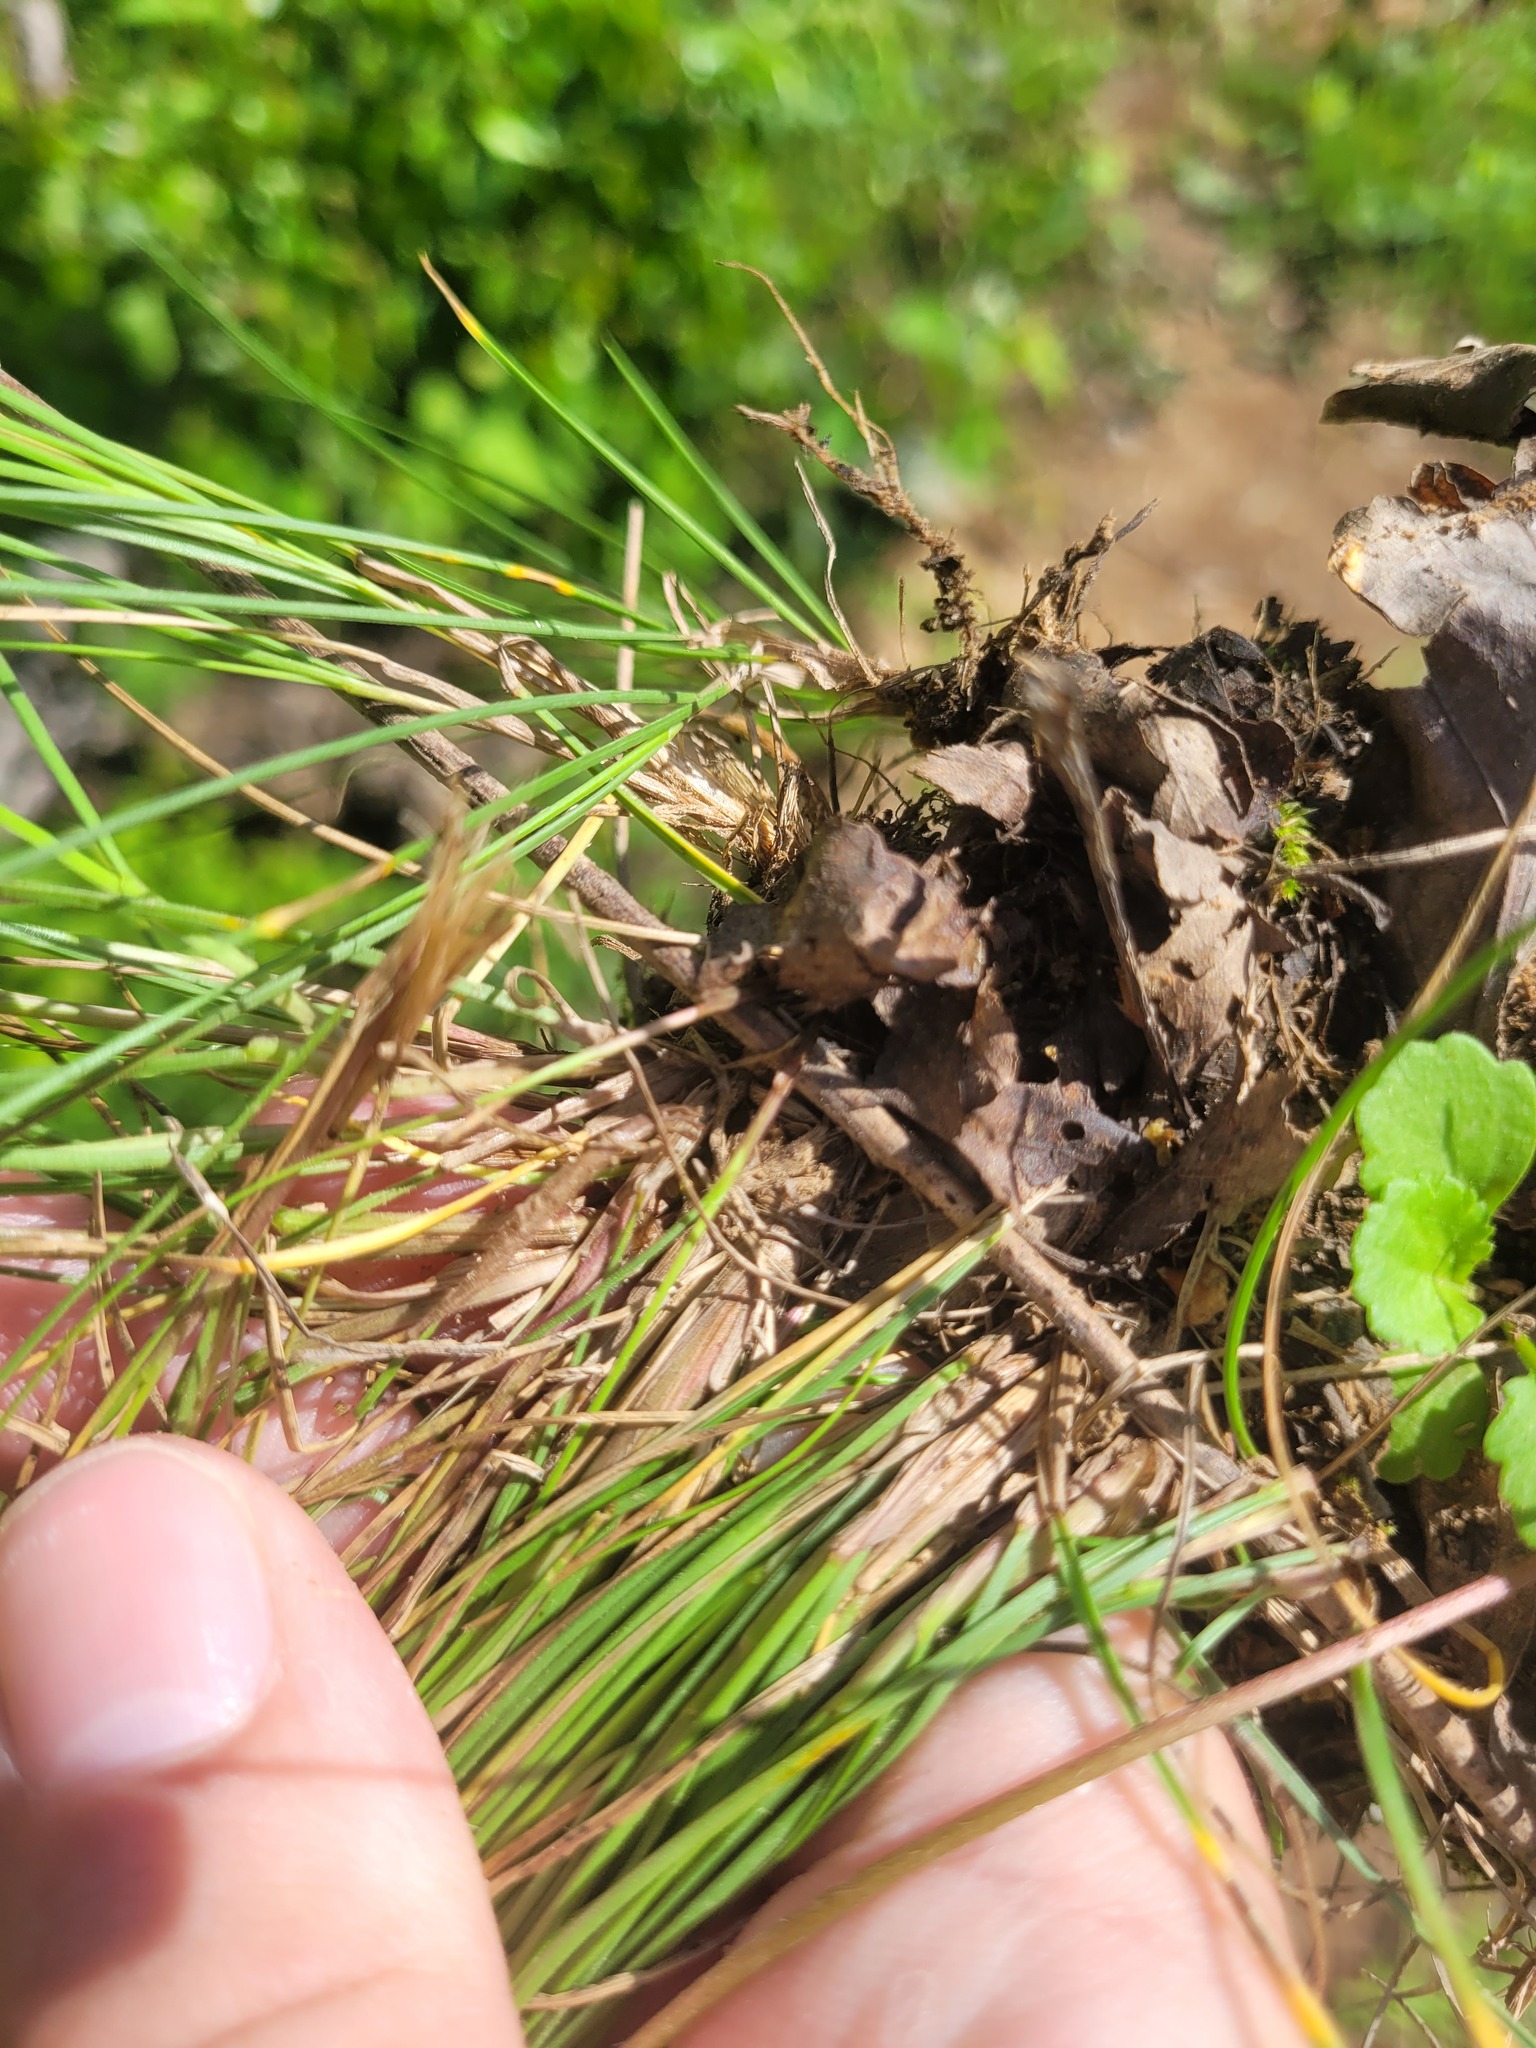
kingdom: Plantae
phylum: Tracheophyta
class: Liliopsida
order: Poales
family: Poaceae
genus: Festuca
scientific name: Festuca rubra
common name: Red fescue
